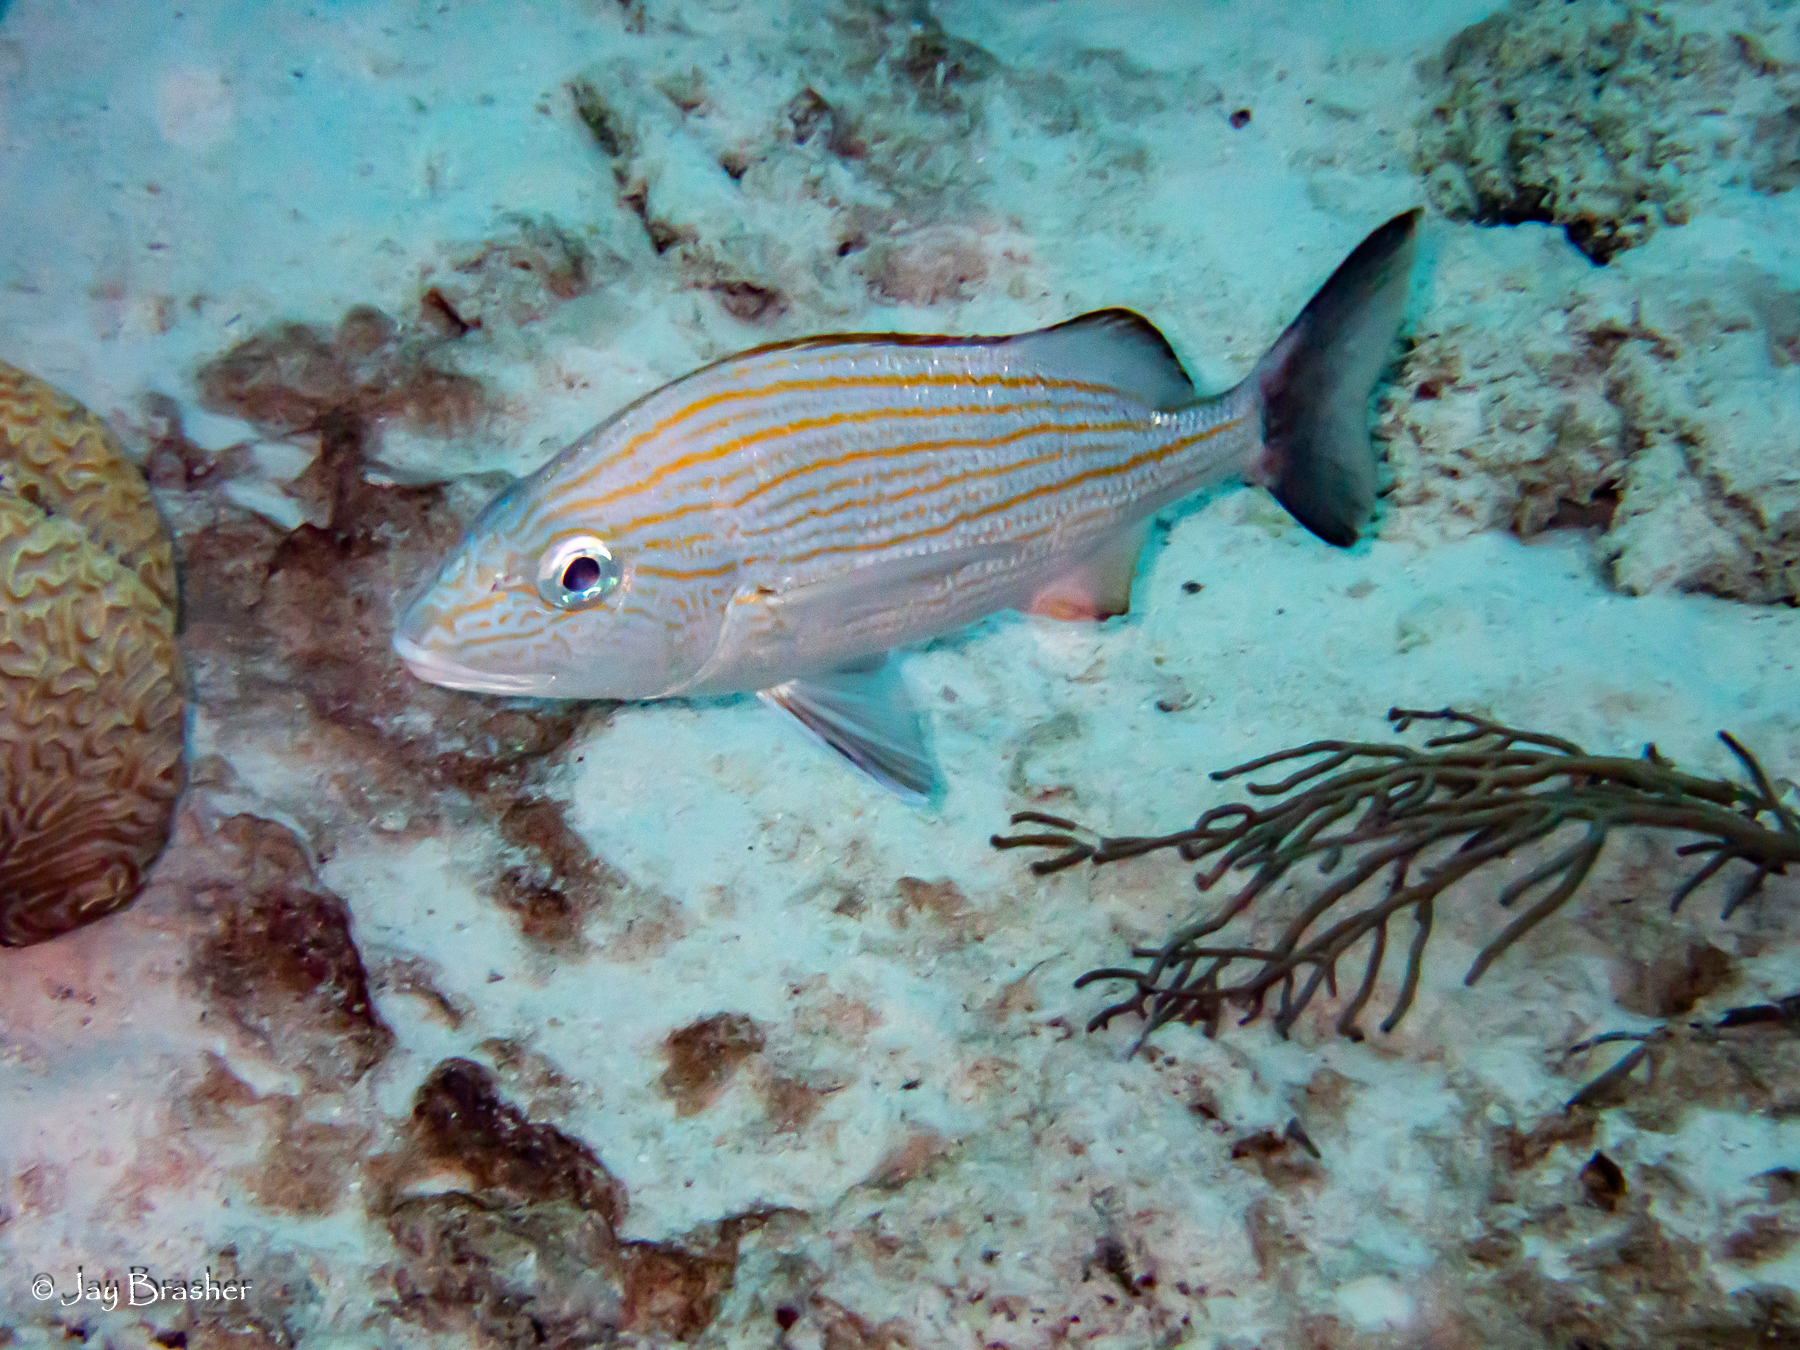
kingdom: Animalia
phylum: Chordata
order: Perciformes
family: Haemulidae
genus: Haemulon
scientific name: Haemulon carbonarium
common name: Caesar grunt
